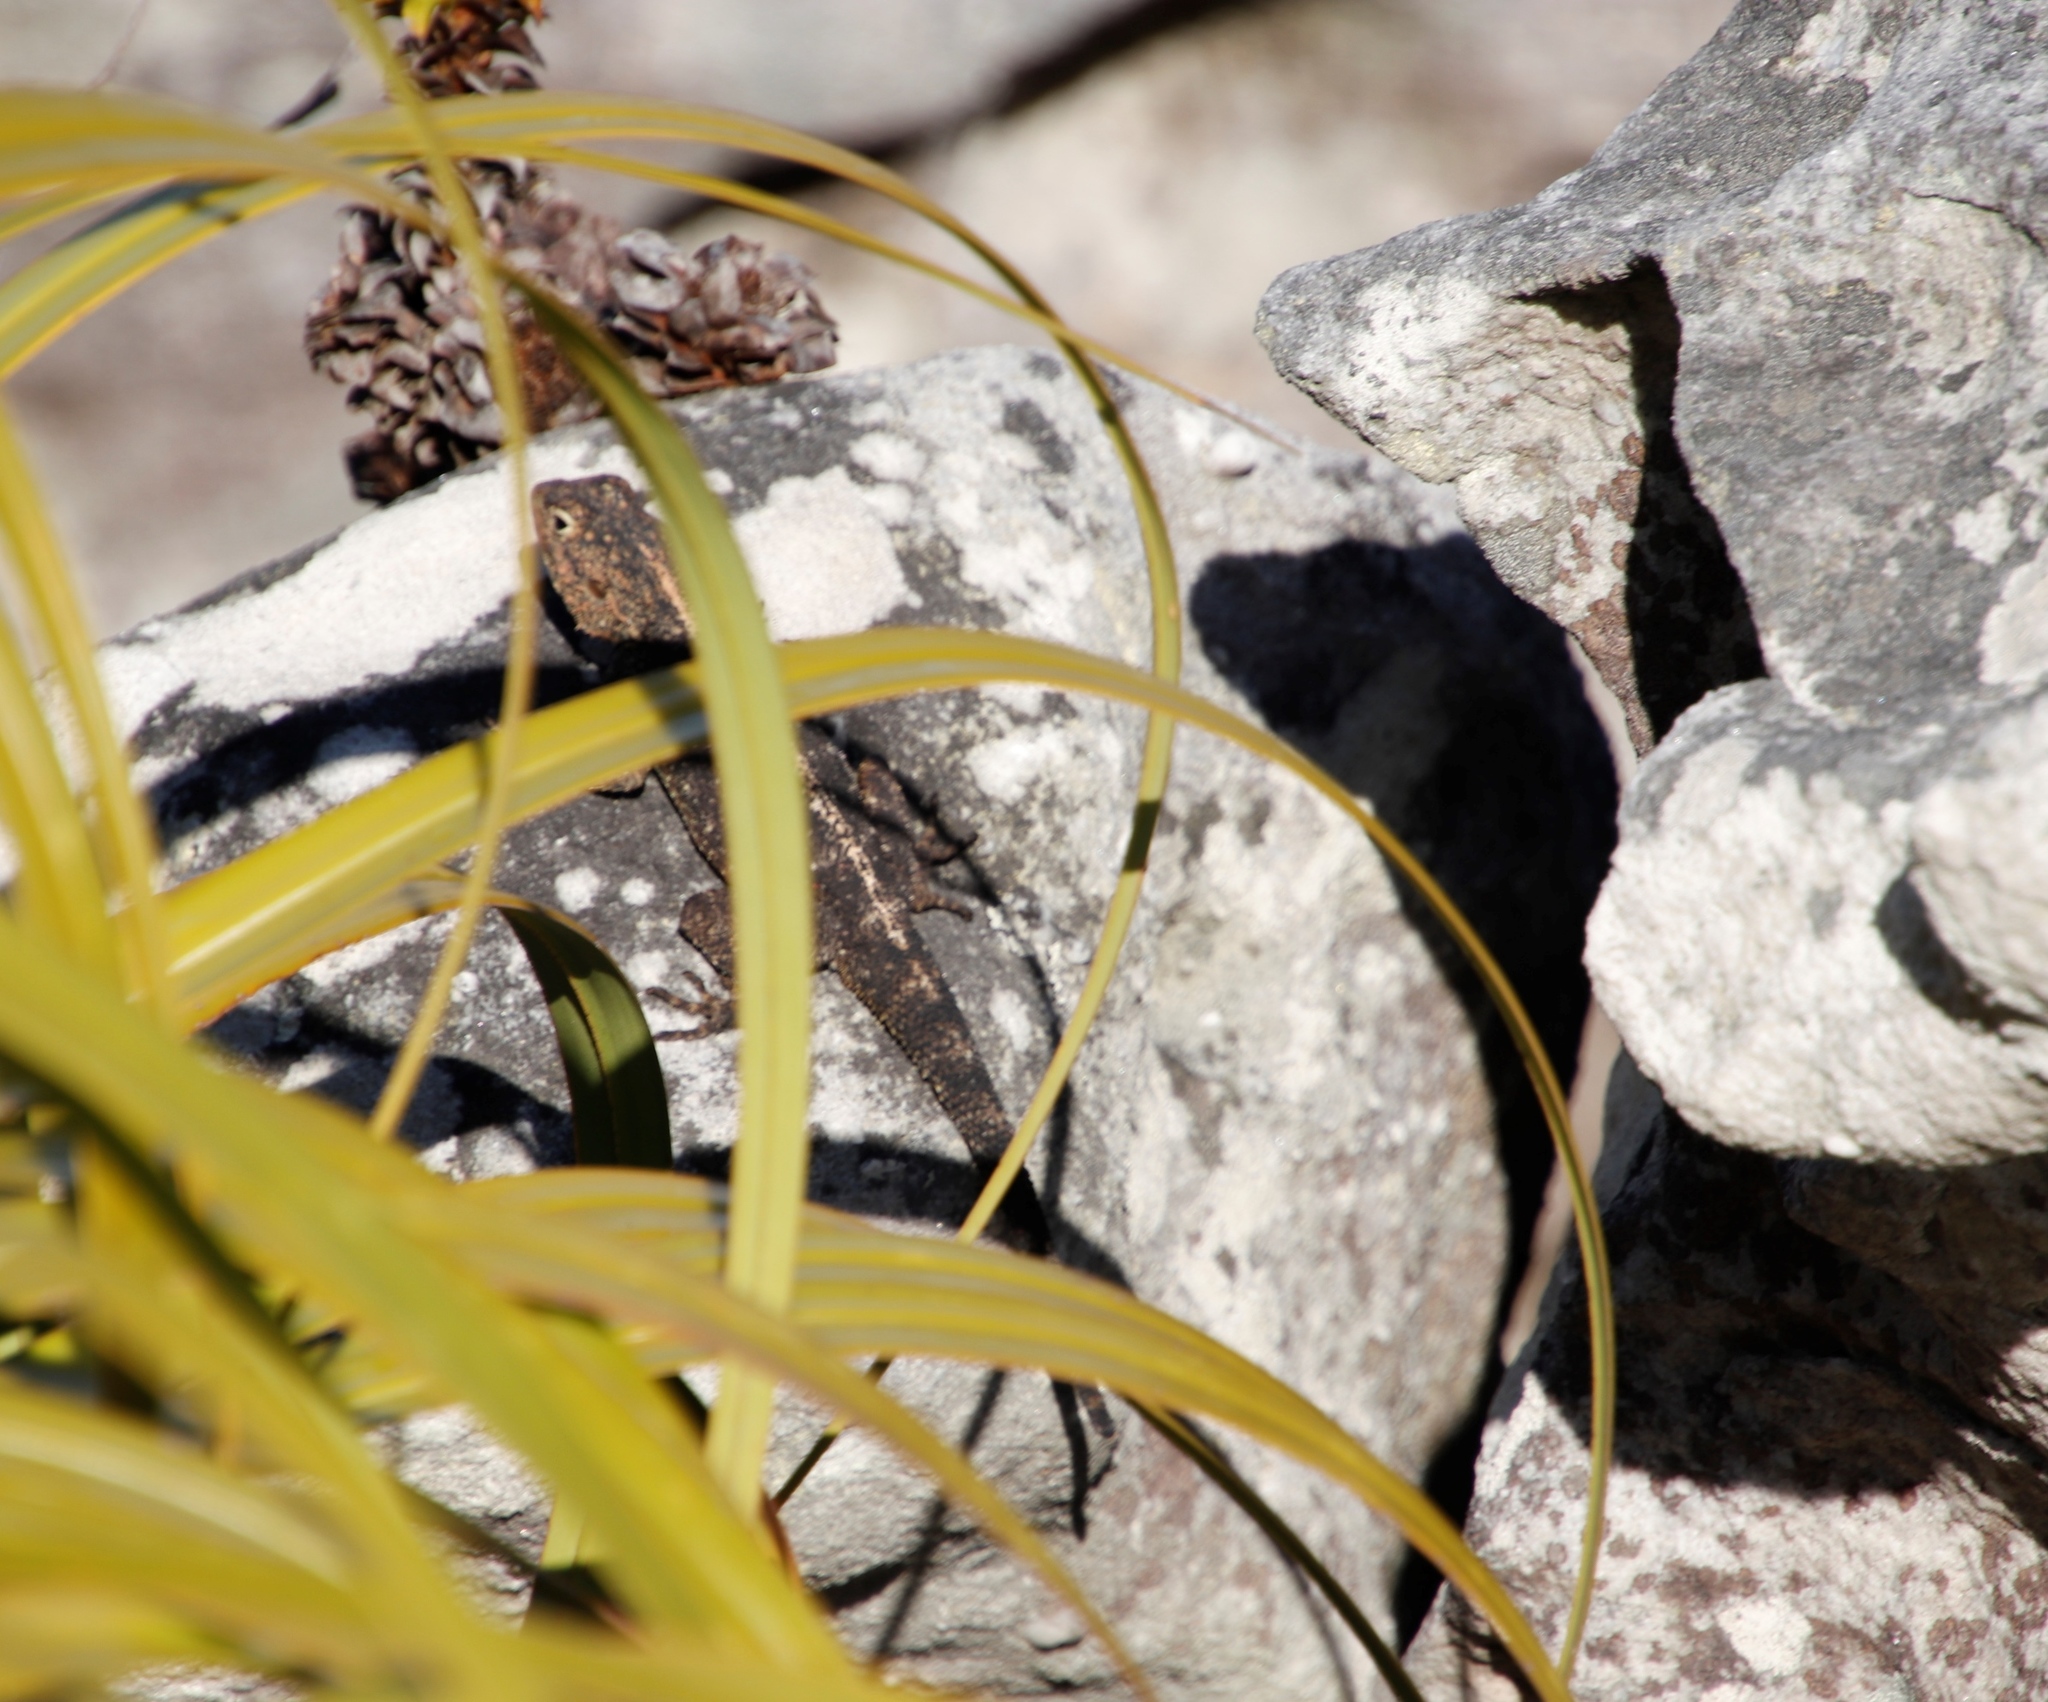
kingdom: Animalia
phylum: Chordata
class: Squamata
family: Agamidae
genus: Agama
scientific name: Agama atra
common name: Southern african rock agama
